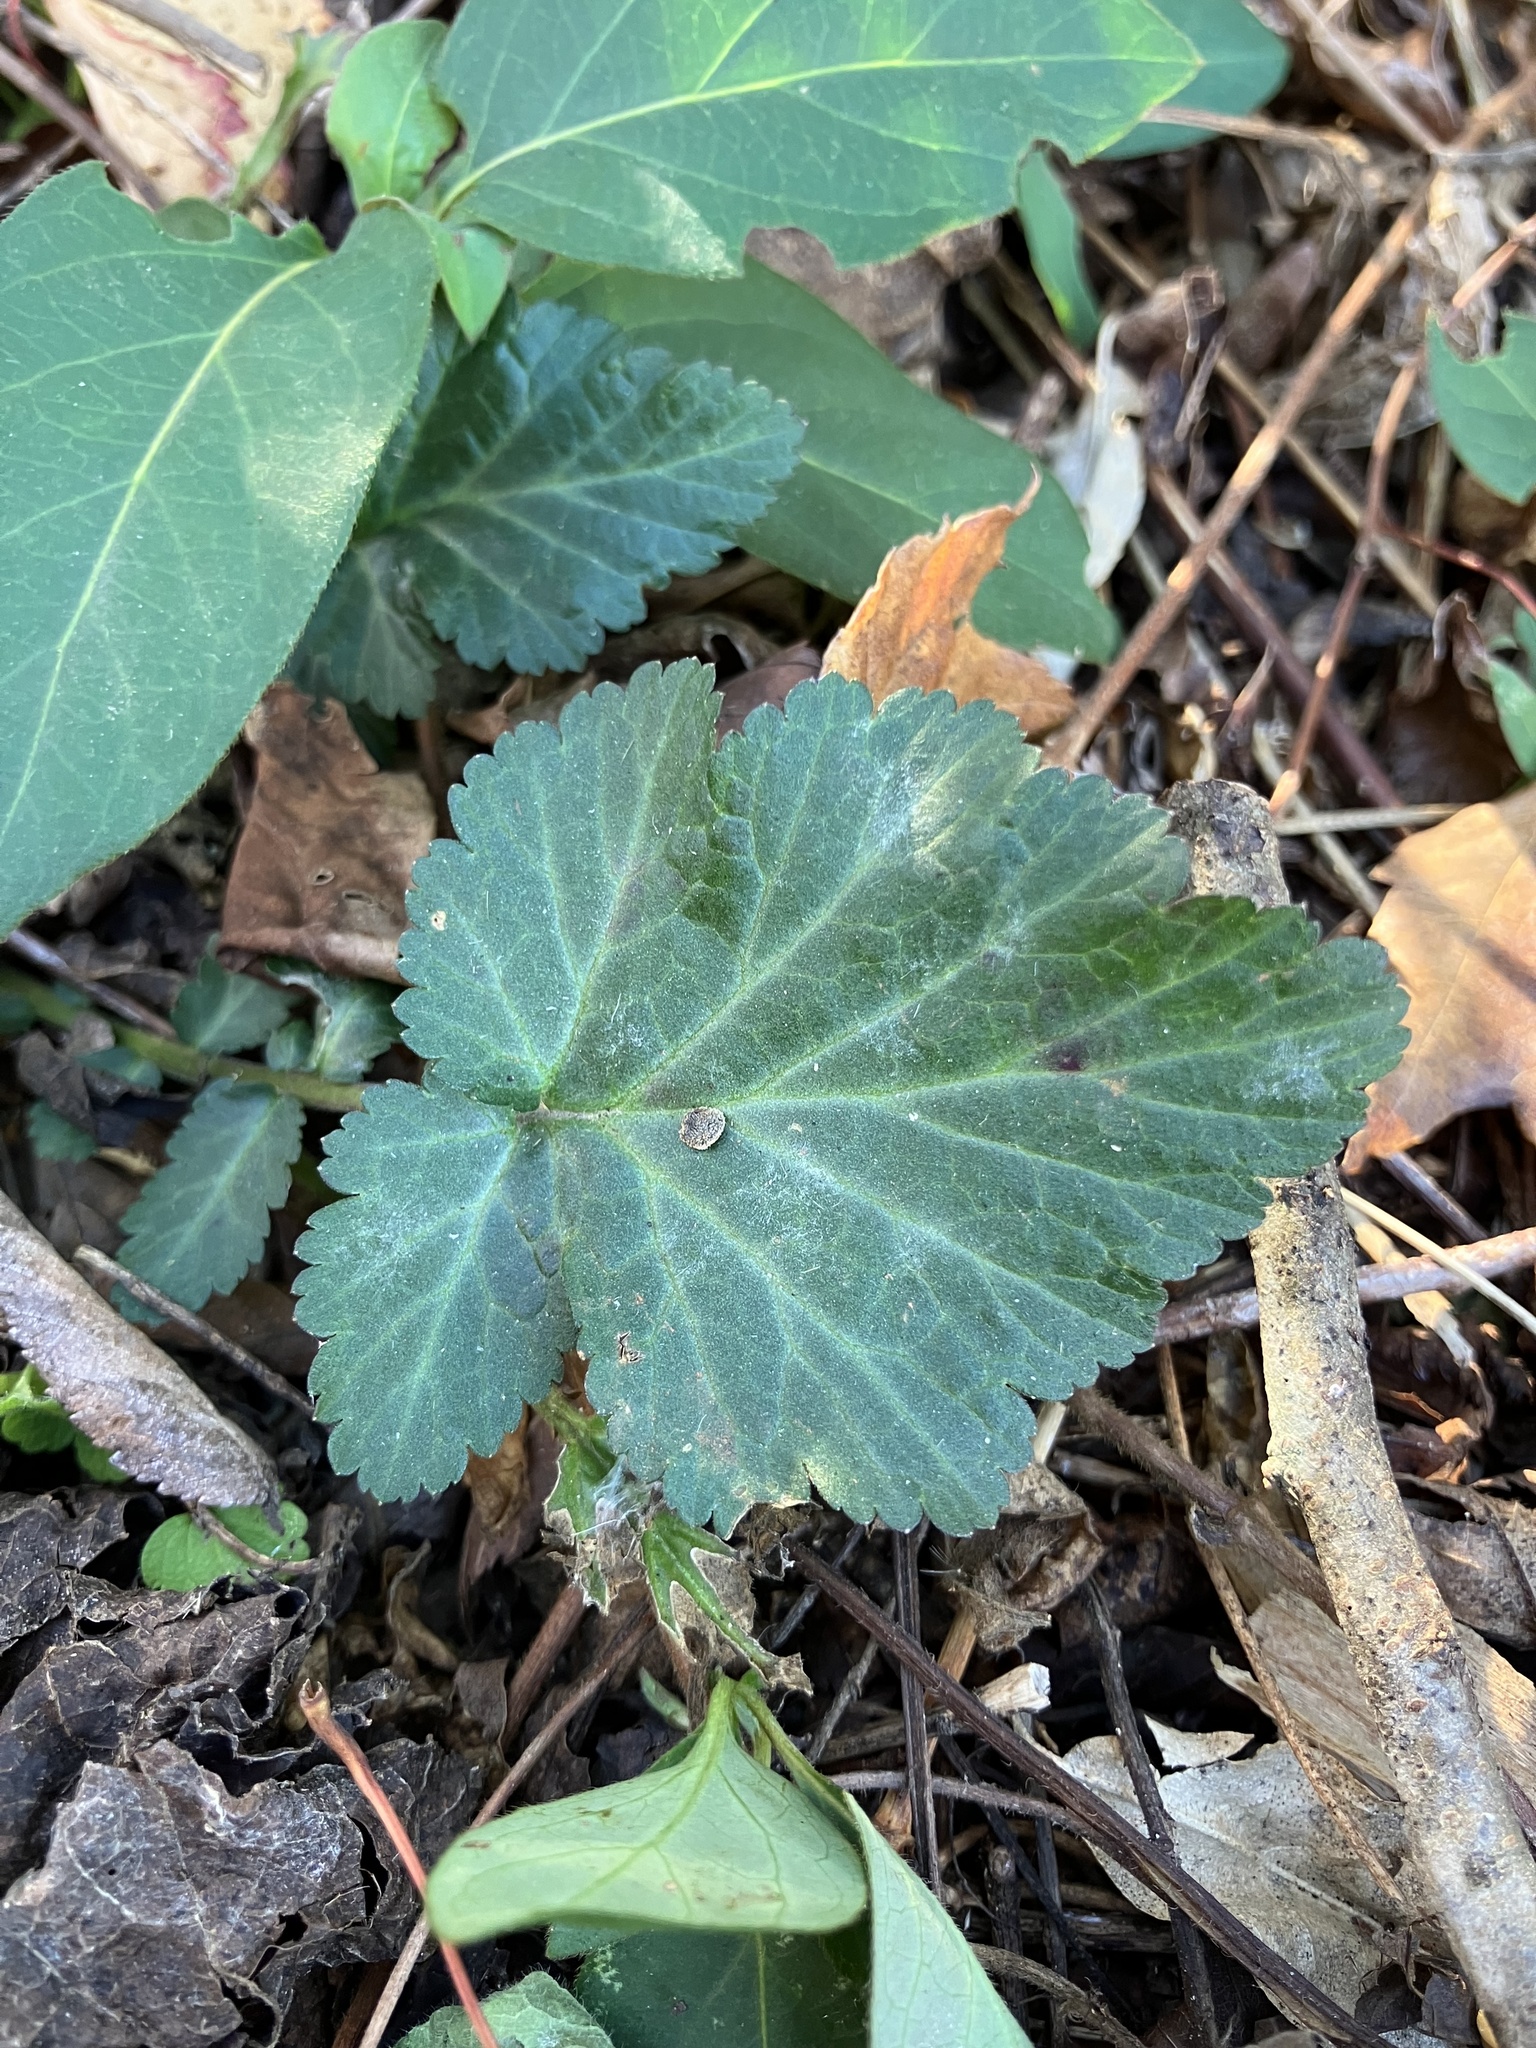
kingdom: Plantae
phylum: Tracheophyta
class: Magnoliopsida
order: Rosales
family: Rosaceae
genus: Geum
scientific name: Geum canadense
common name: White avens
